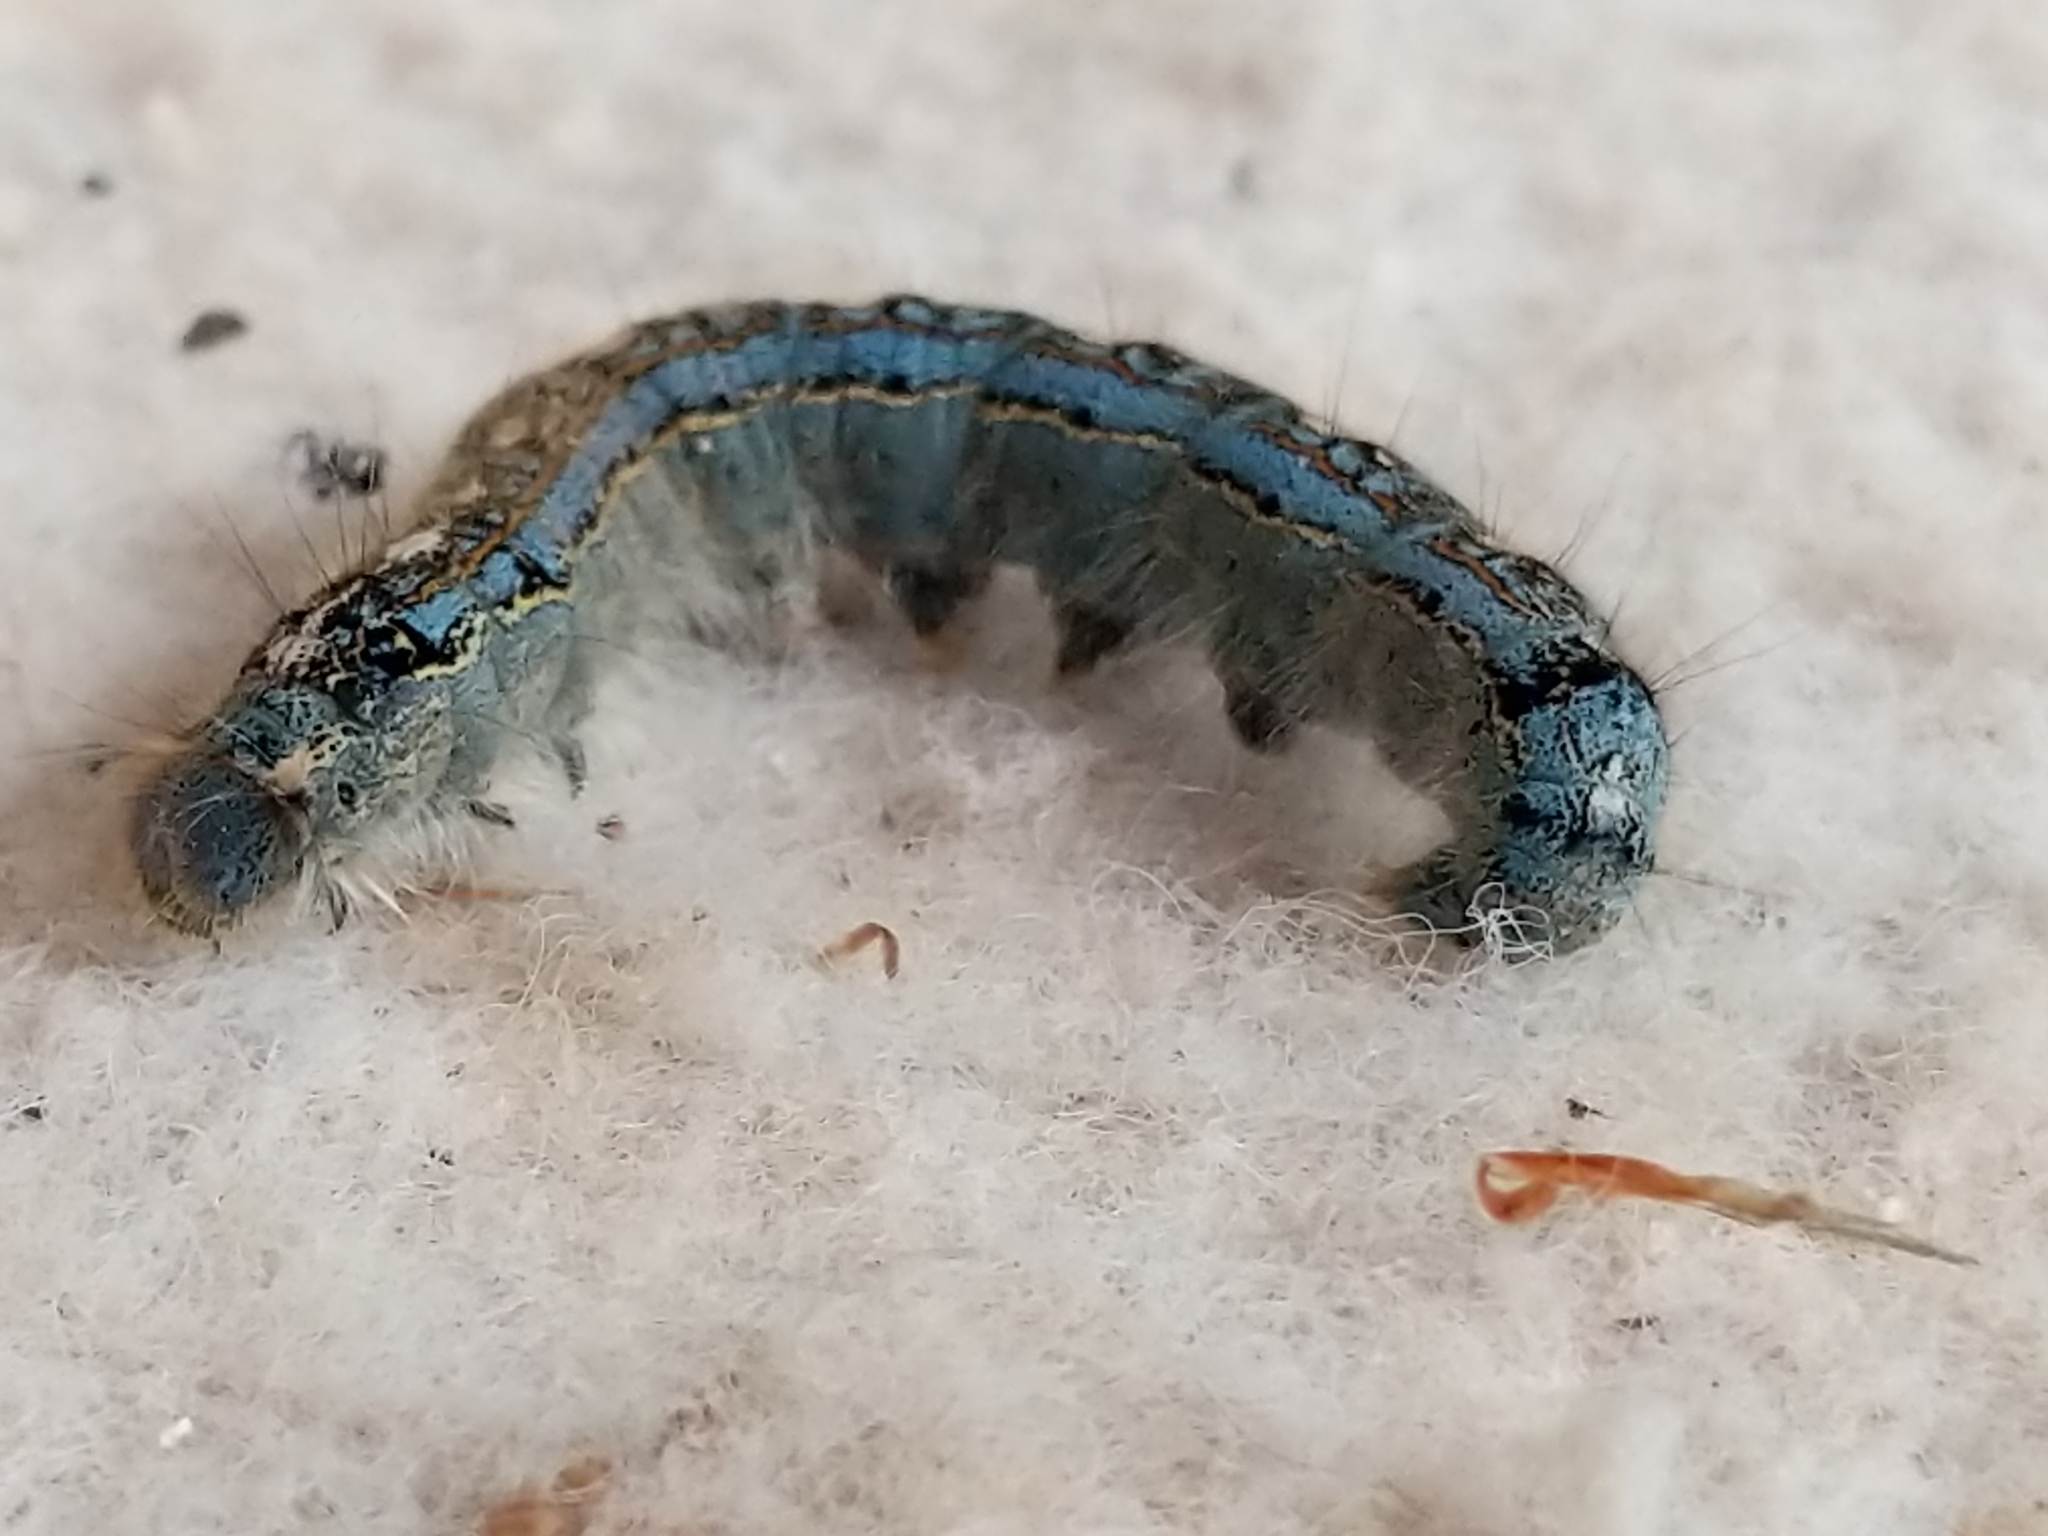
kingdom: Animalia
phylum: Arthropoda
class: Insecta
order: Lepidoptera
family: Lasiocampidae
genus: Malacosoma
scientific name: Malacosoma disstria
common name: Forest tent caterpillar
